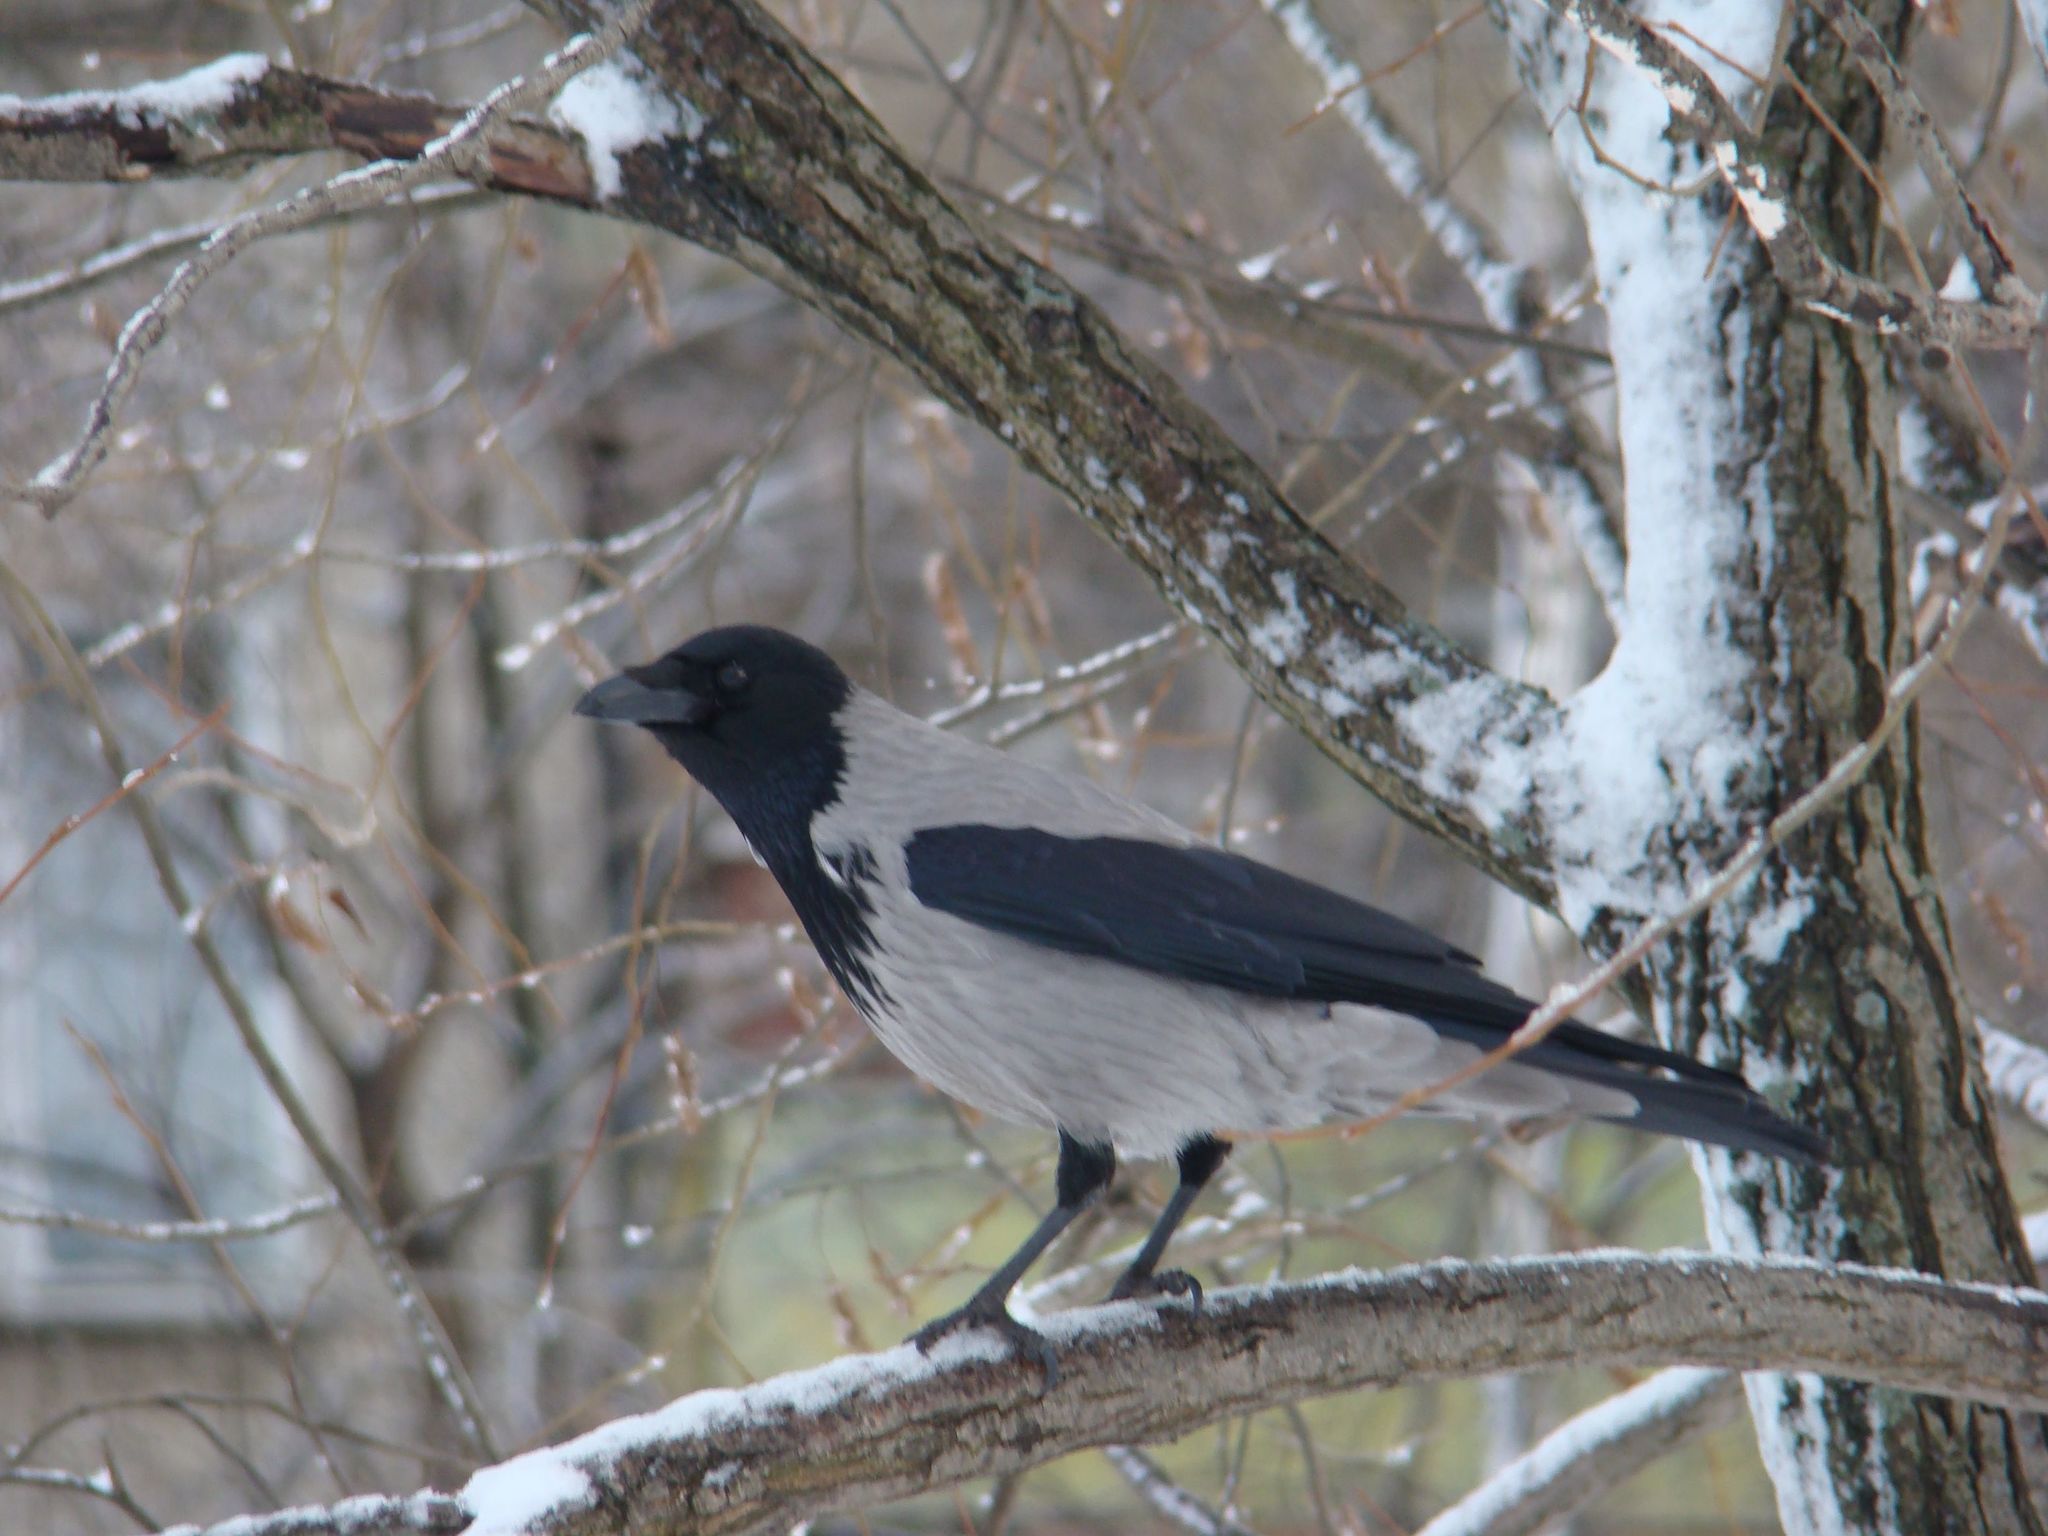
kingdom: Animalia
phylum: Chordata
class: Aves
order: Passeriformes
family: Corvidae
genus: Corvus
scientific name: Corvus cornix
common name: Hooded crow
